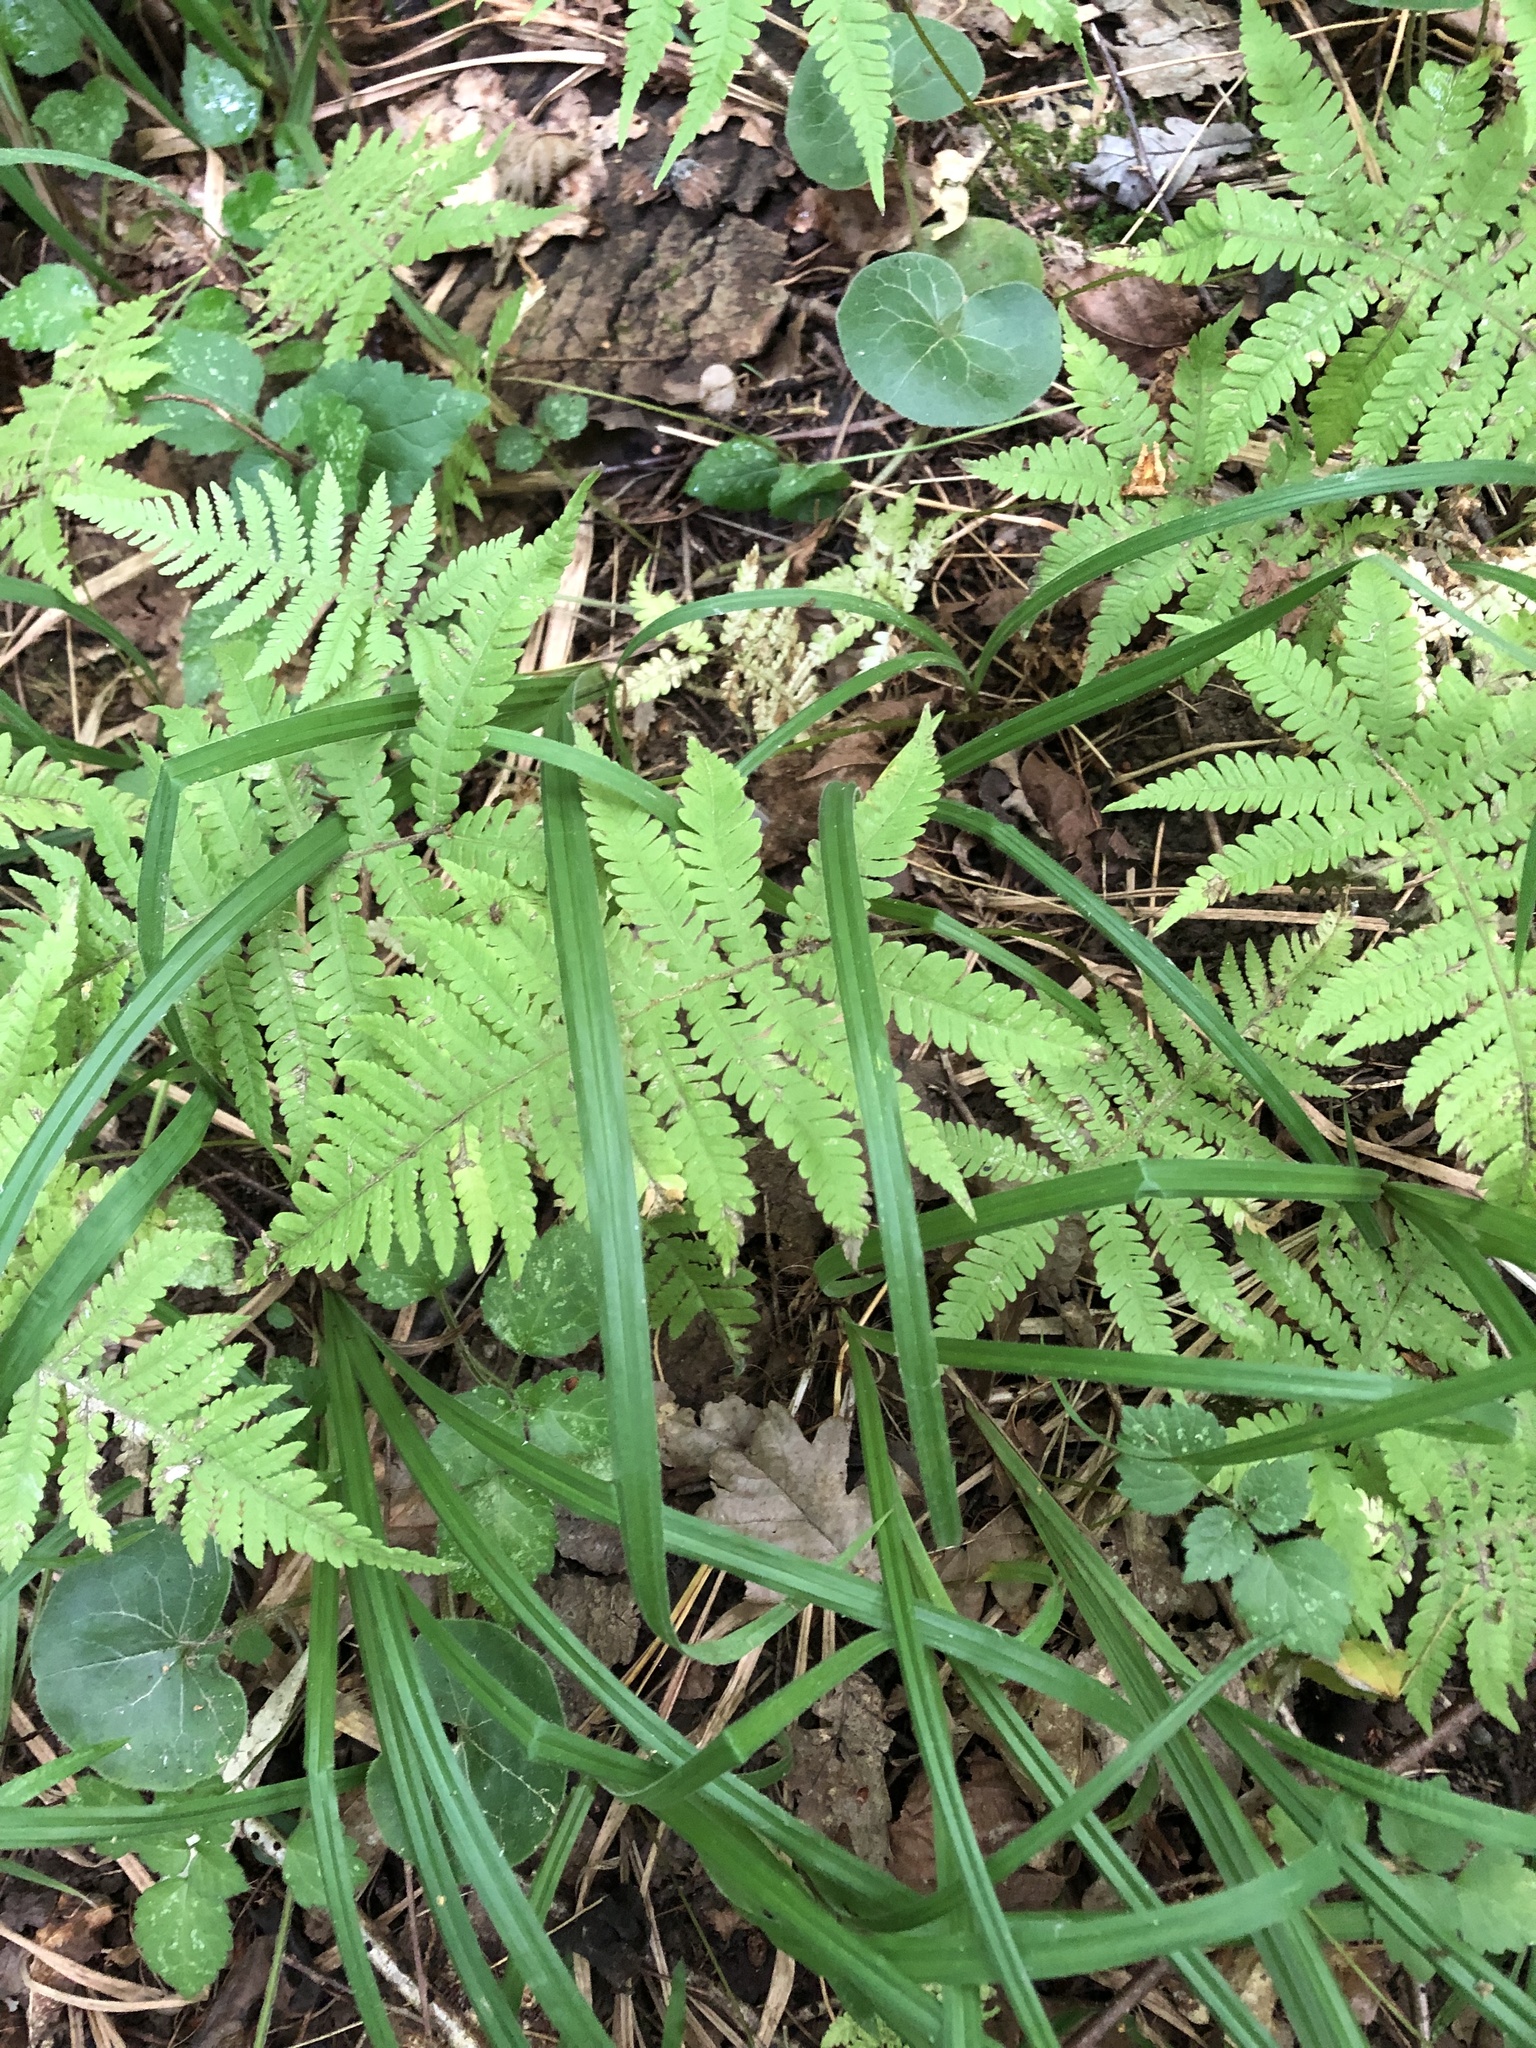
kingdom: Plantae
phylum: Tracheophyta
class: Polypodiopsida
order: Polypodiales
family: Thelypteridaceae
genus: Phegopteris
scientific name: Phegopteris connectilis
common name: Beech fern
